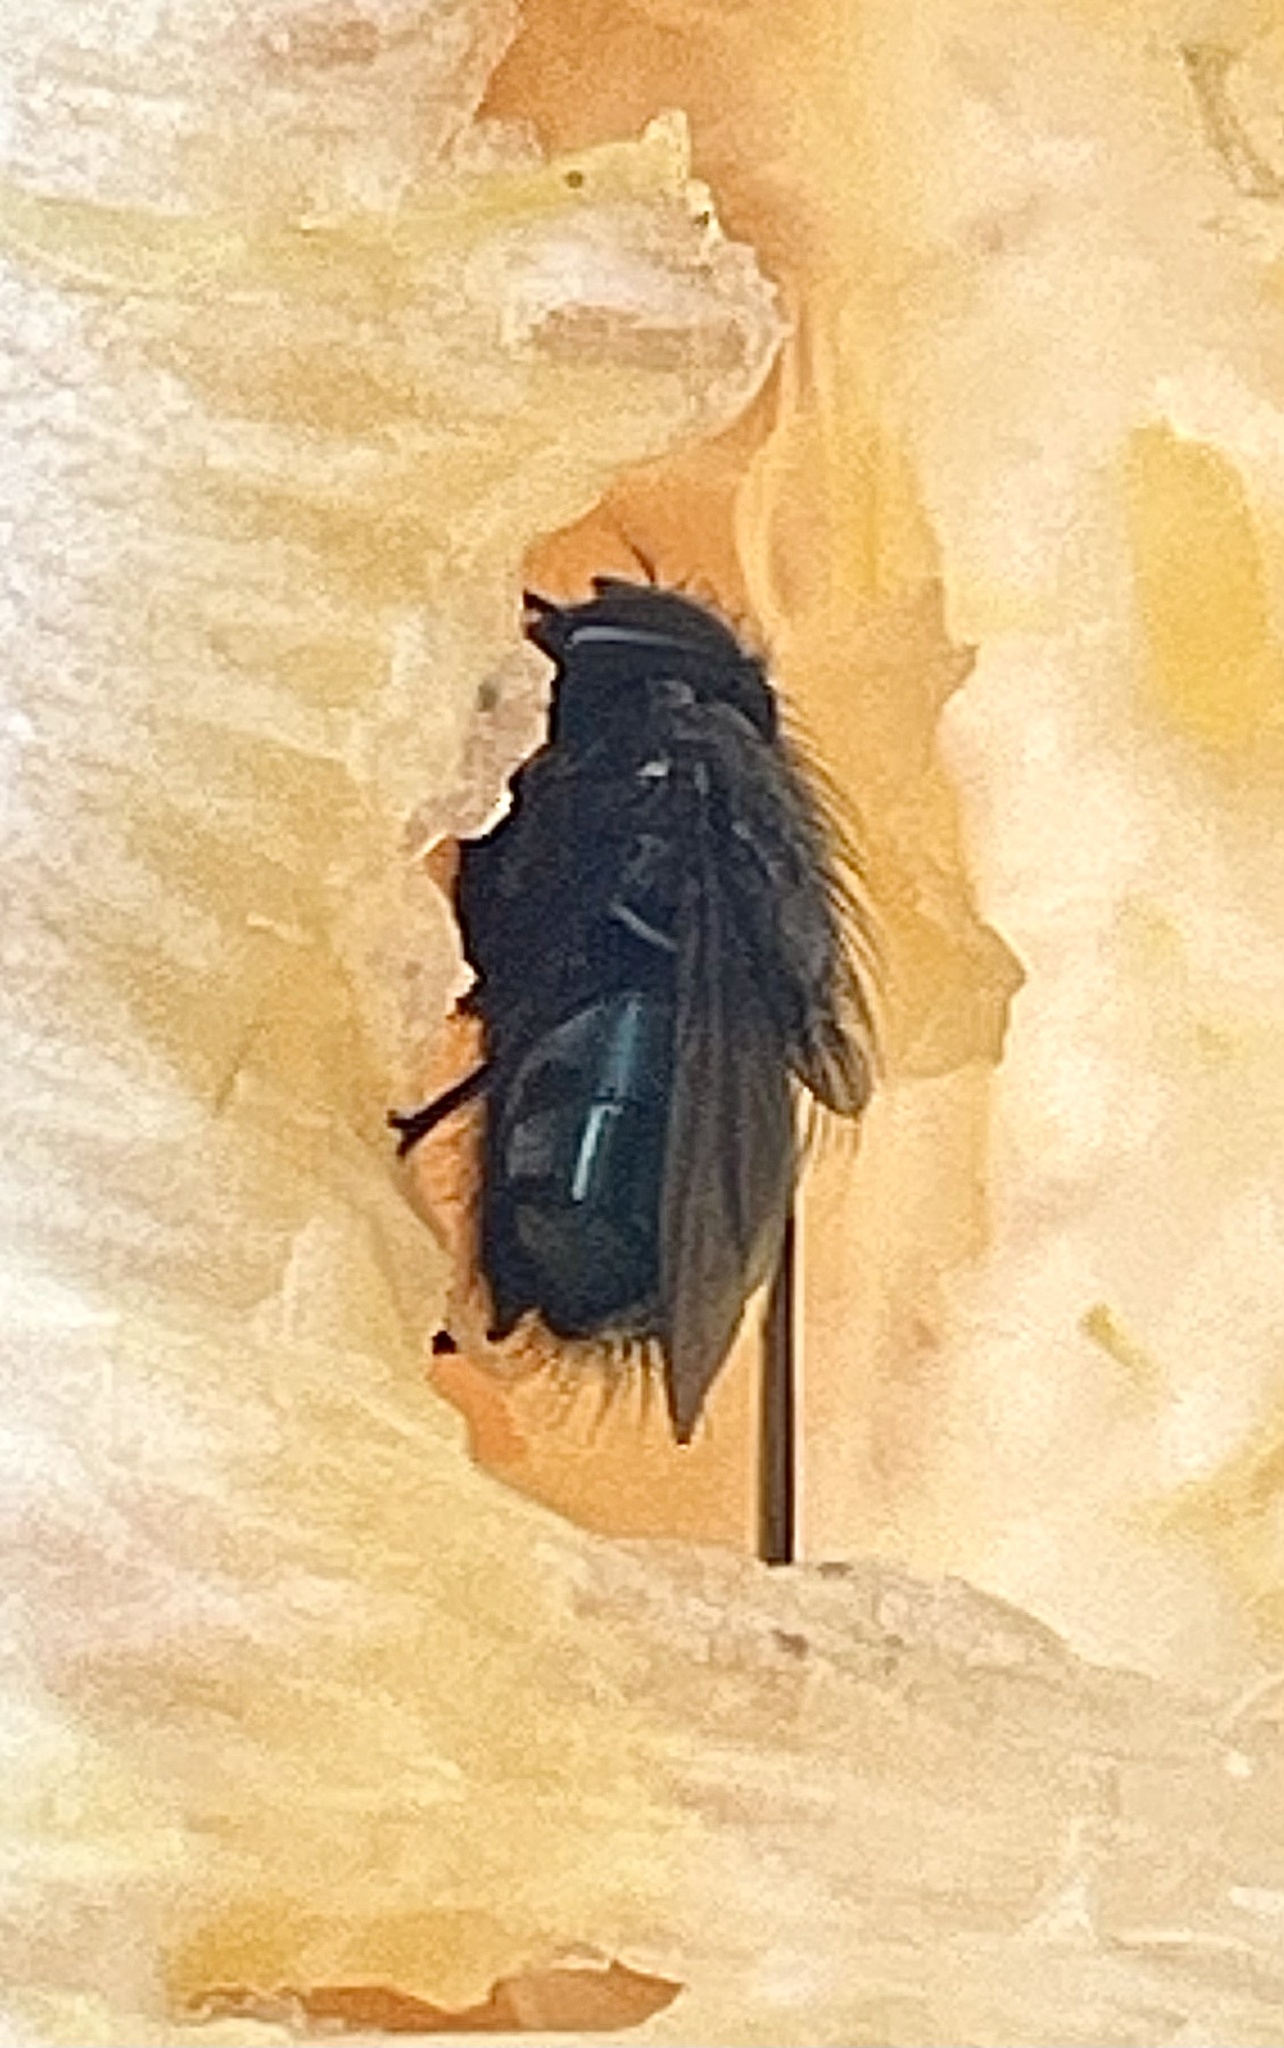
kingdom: Animalia
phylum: Arthropoda
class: Insecta
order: Diptera
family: Calliphoridae
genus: Calliphora
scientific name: Calliphora vicina
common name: Common blow flie
